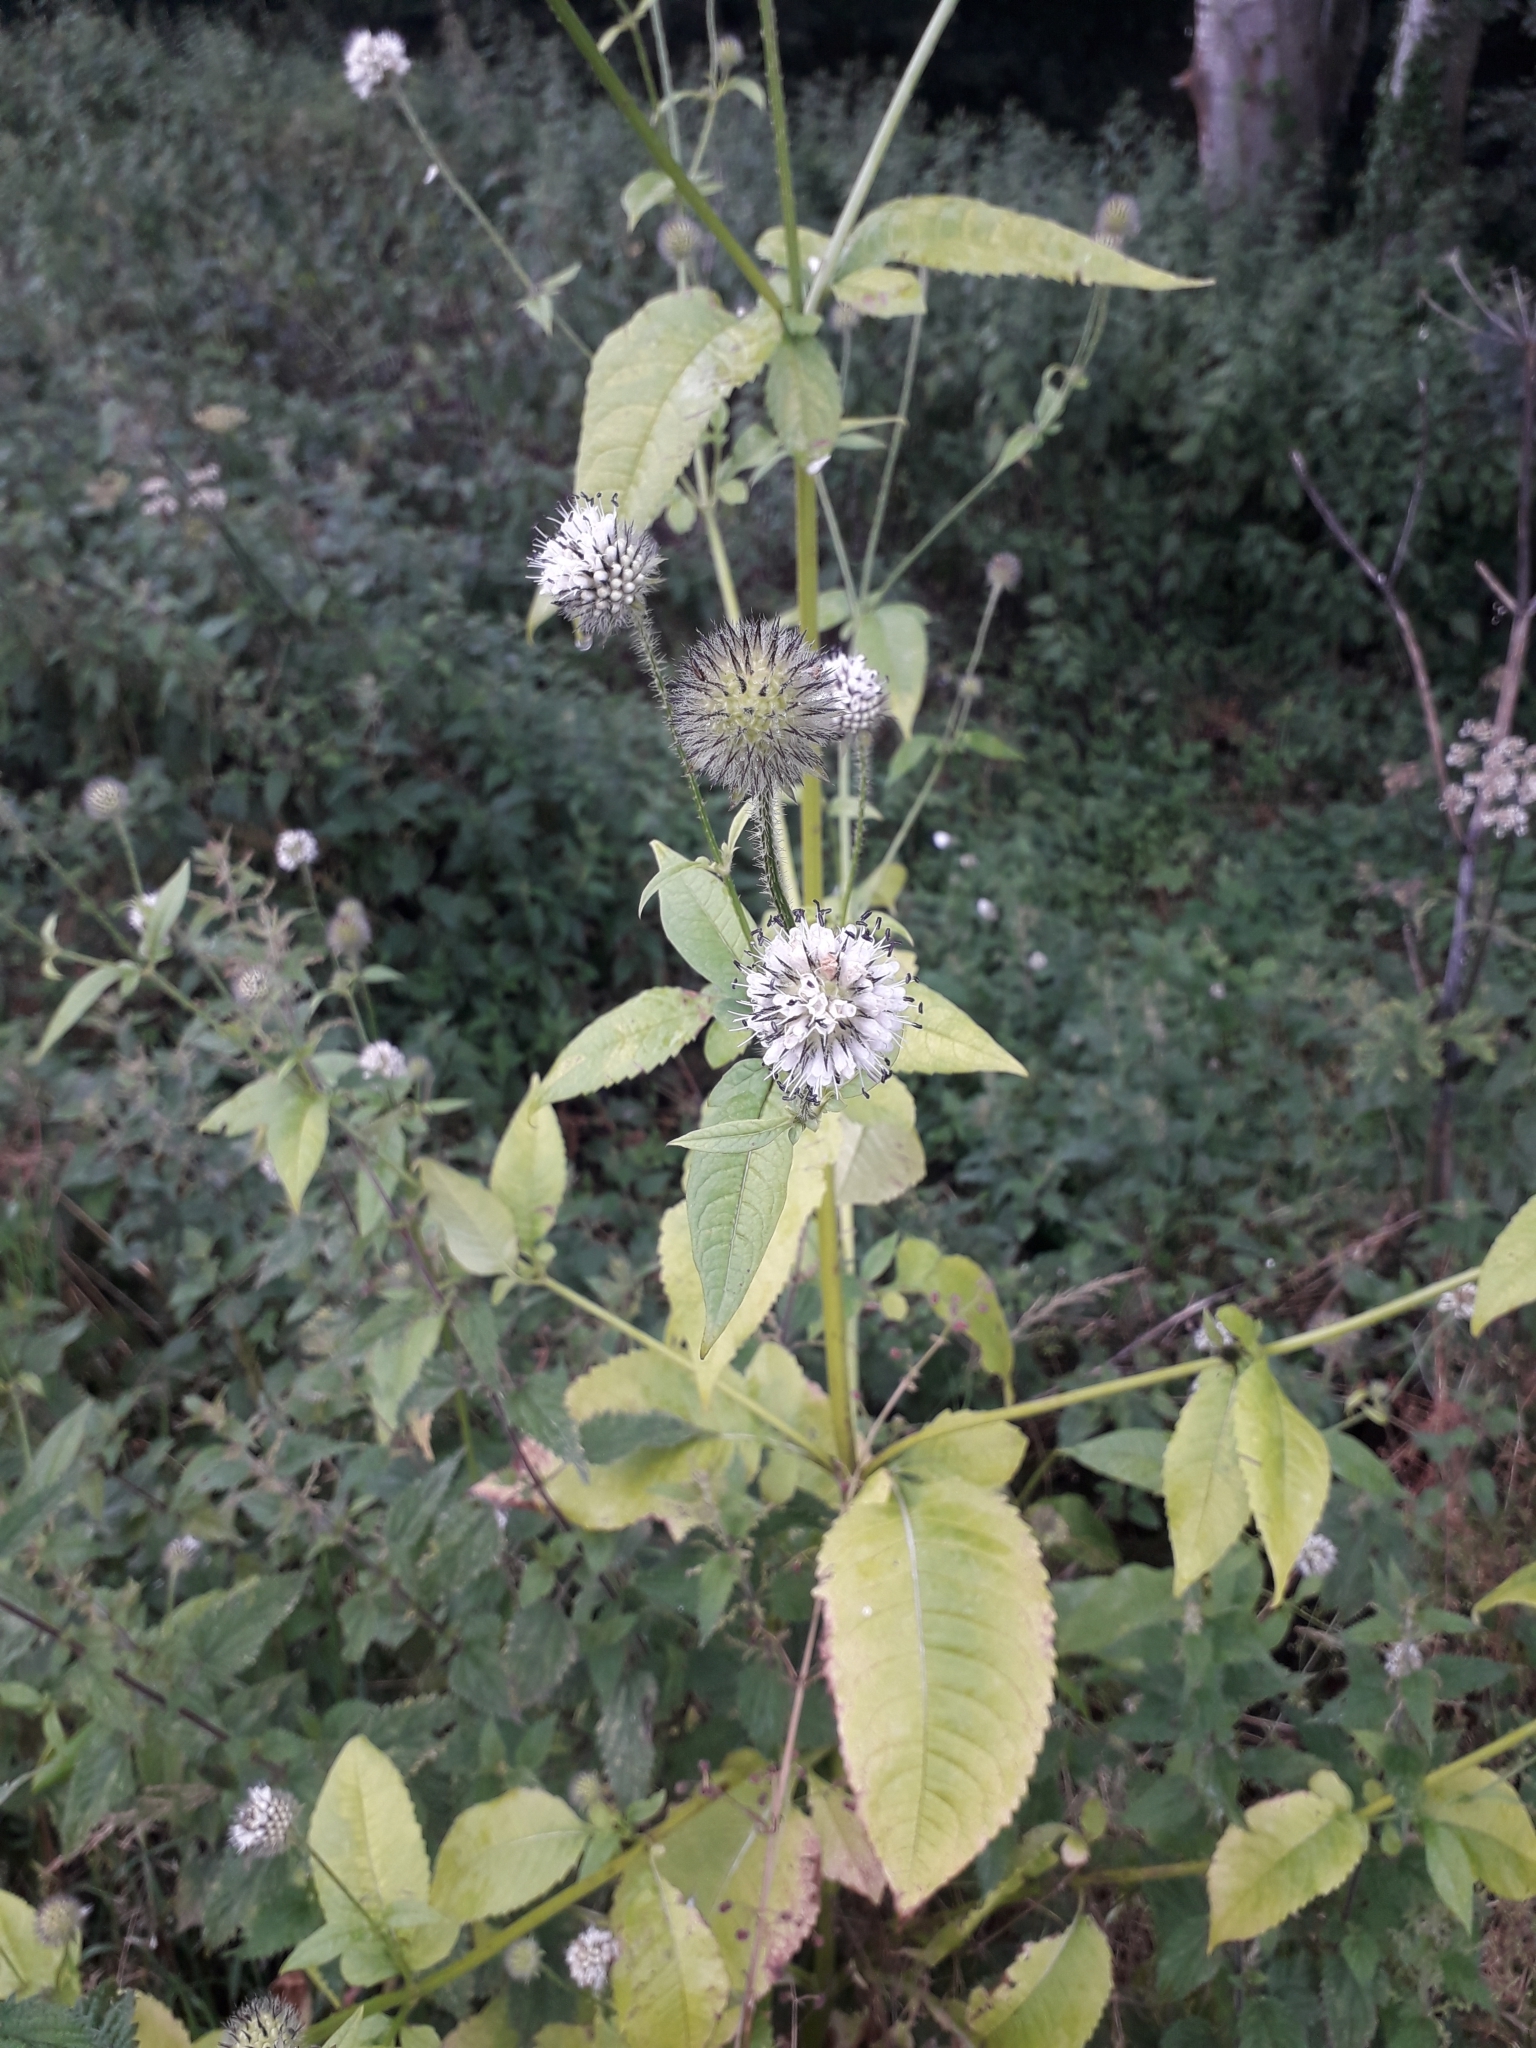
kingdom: Plantae
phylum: Tracheophyta
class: Magnoliopsida
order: Dipsacales
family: Caprifoliaceae
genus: Dipsacus
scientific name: Dipsacus pilosus
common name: Small teasel
